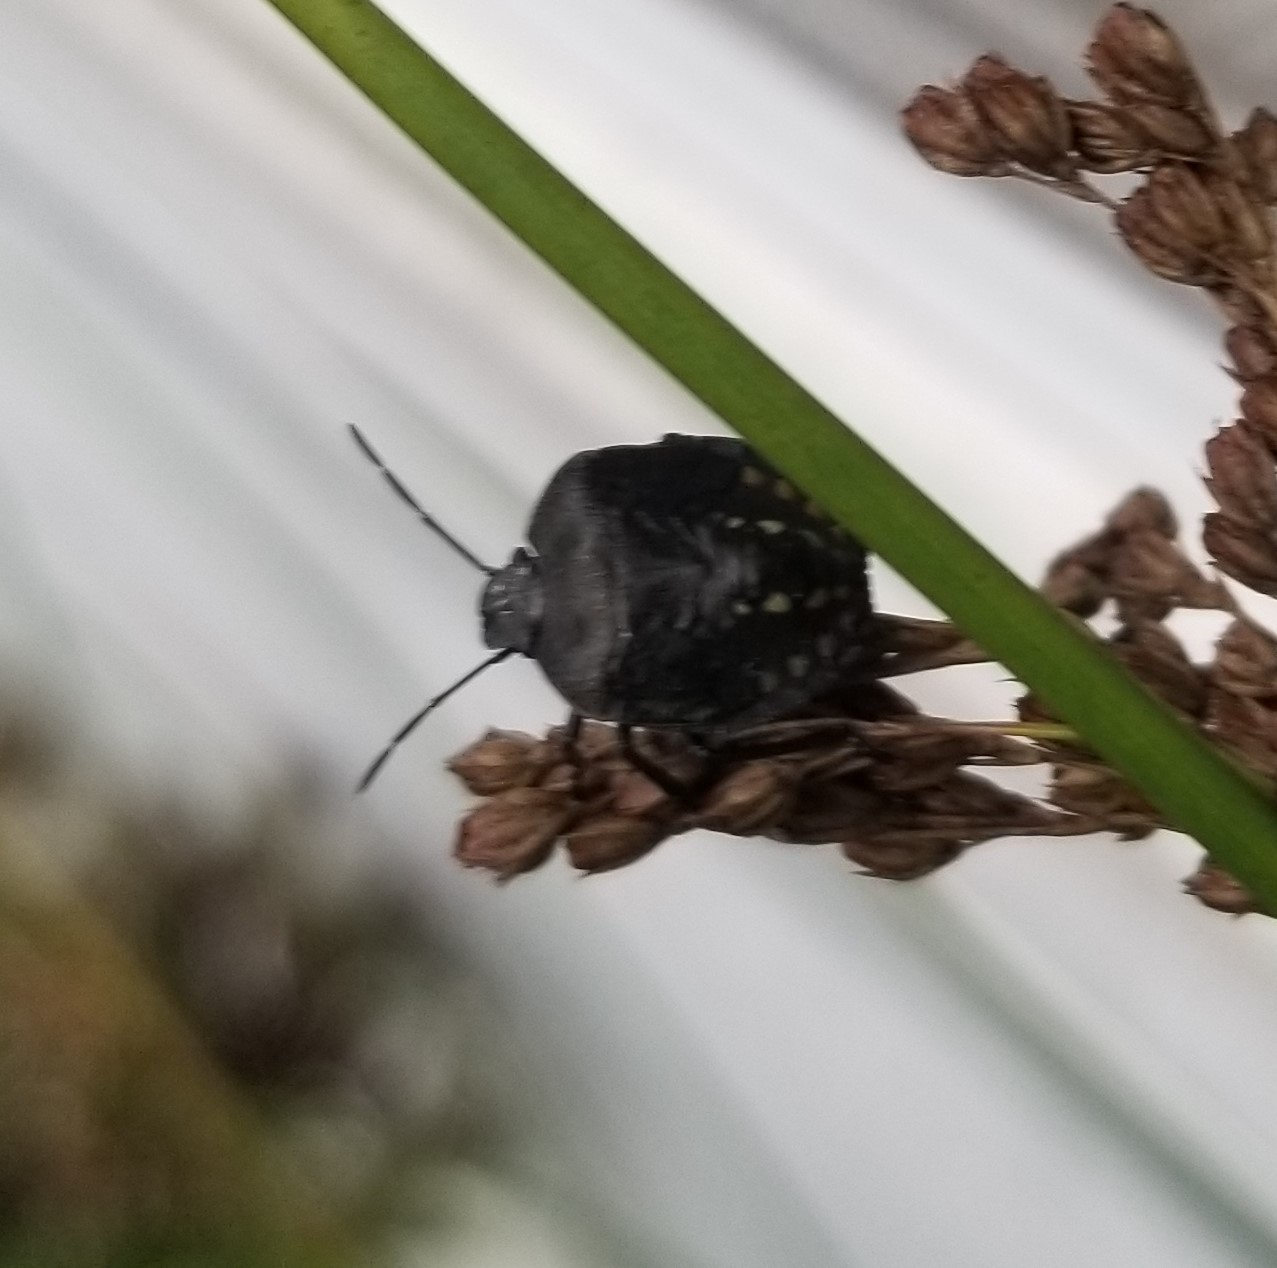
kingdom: Animalia
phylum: Arthropoda
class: Insecta
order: Hemiptera
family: Pentatomidae
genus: Nezara
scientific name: Nezara viridula
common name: Southern green stink bug
